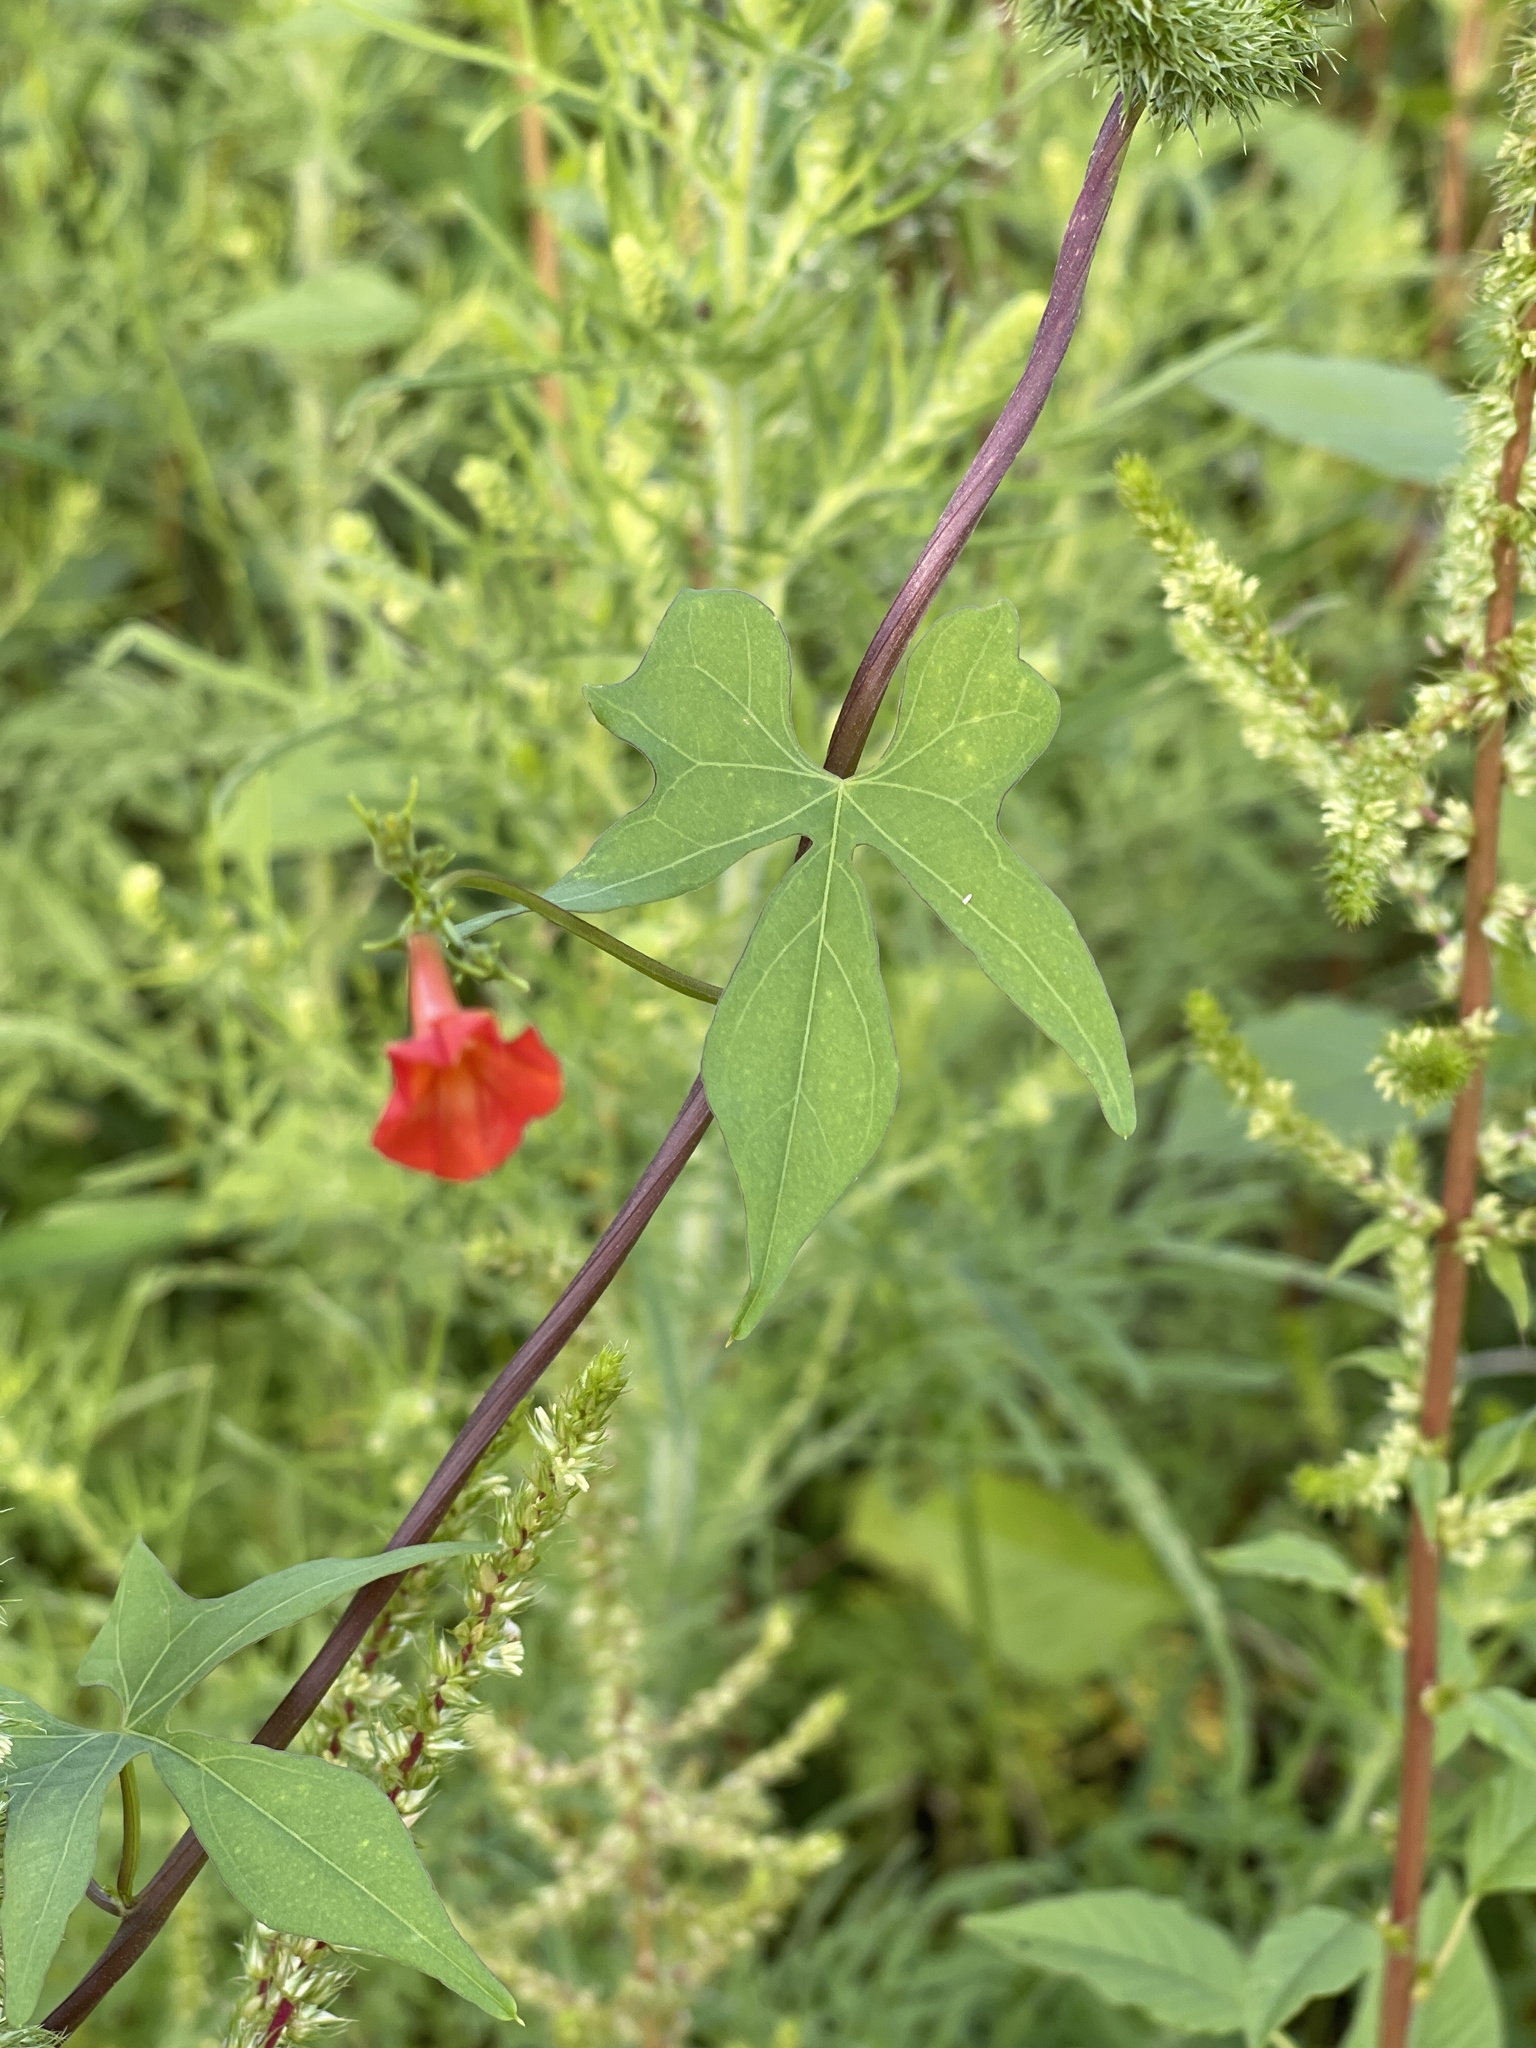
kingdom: Plantae
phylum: Tracheophyta
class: Magnoliopsida
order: Solanales
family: Convolvulaceae
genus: Ipomoea
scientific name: Ipomoea cristulata
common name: Trans-pecos morning-glory
